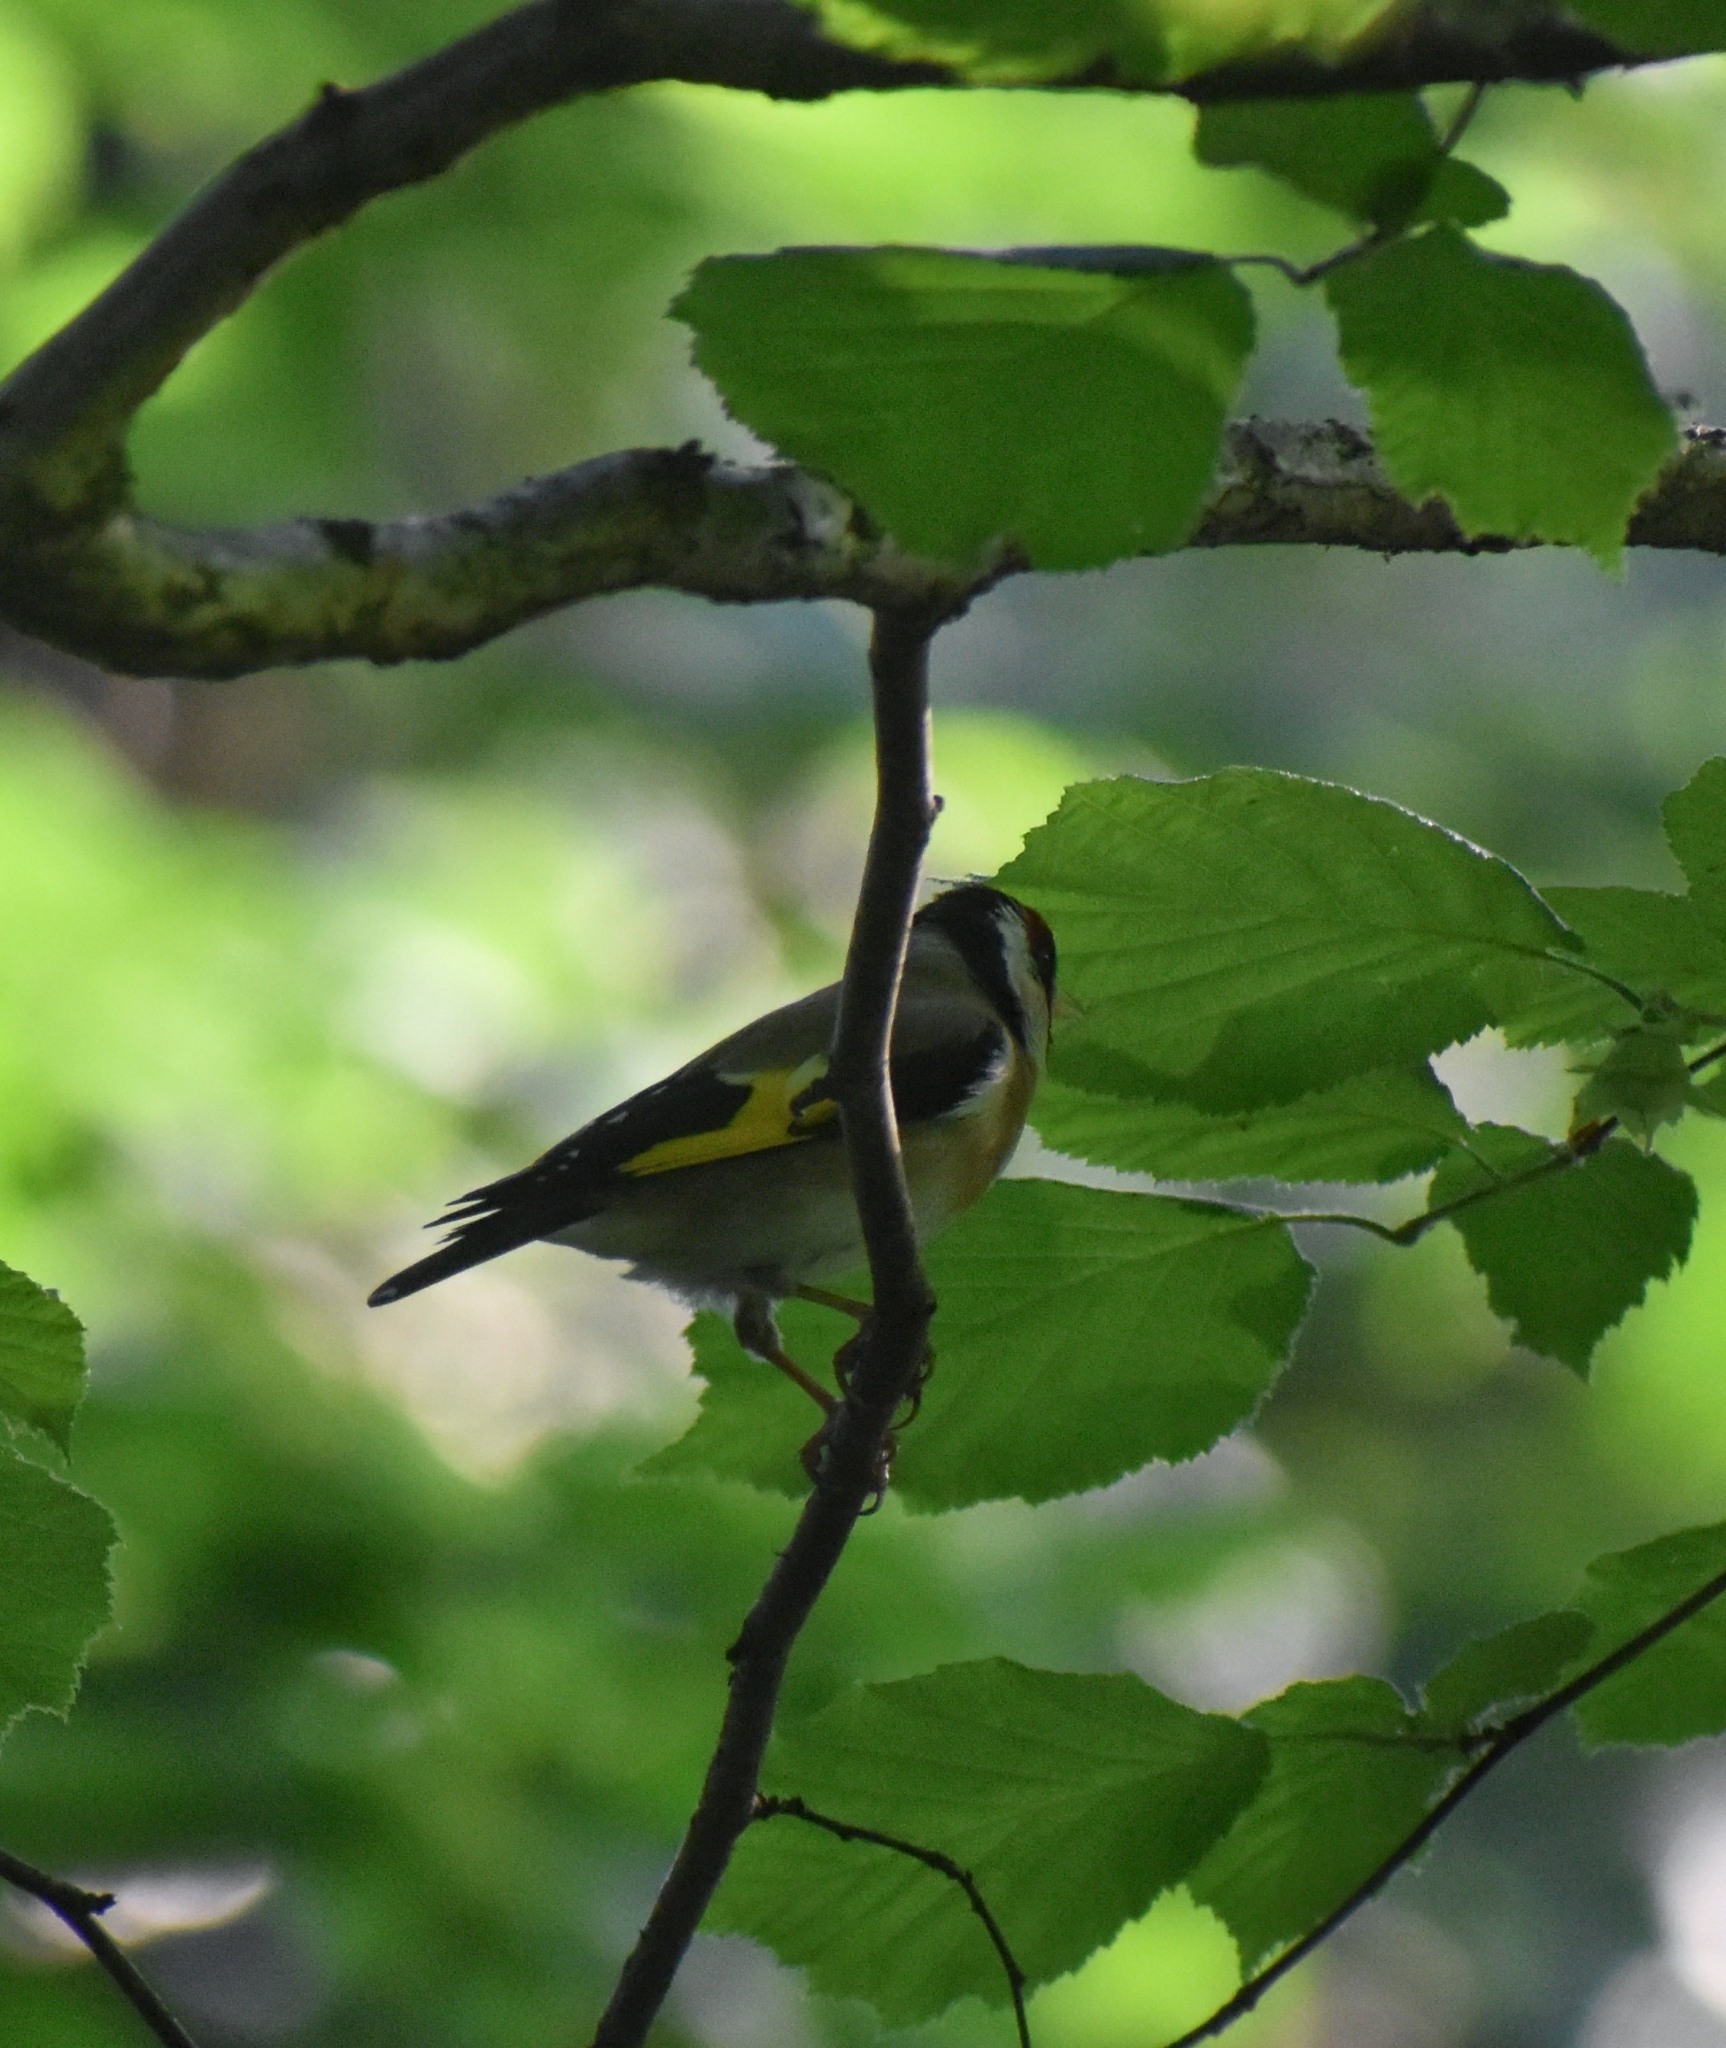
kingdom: Animalia
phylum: Chordata
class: Aves
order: Passeriformes
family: Fringillidae
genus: Carduelis
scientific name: Carduelis carduelis
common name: European goldfinch
